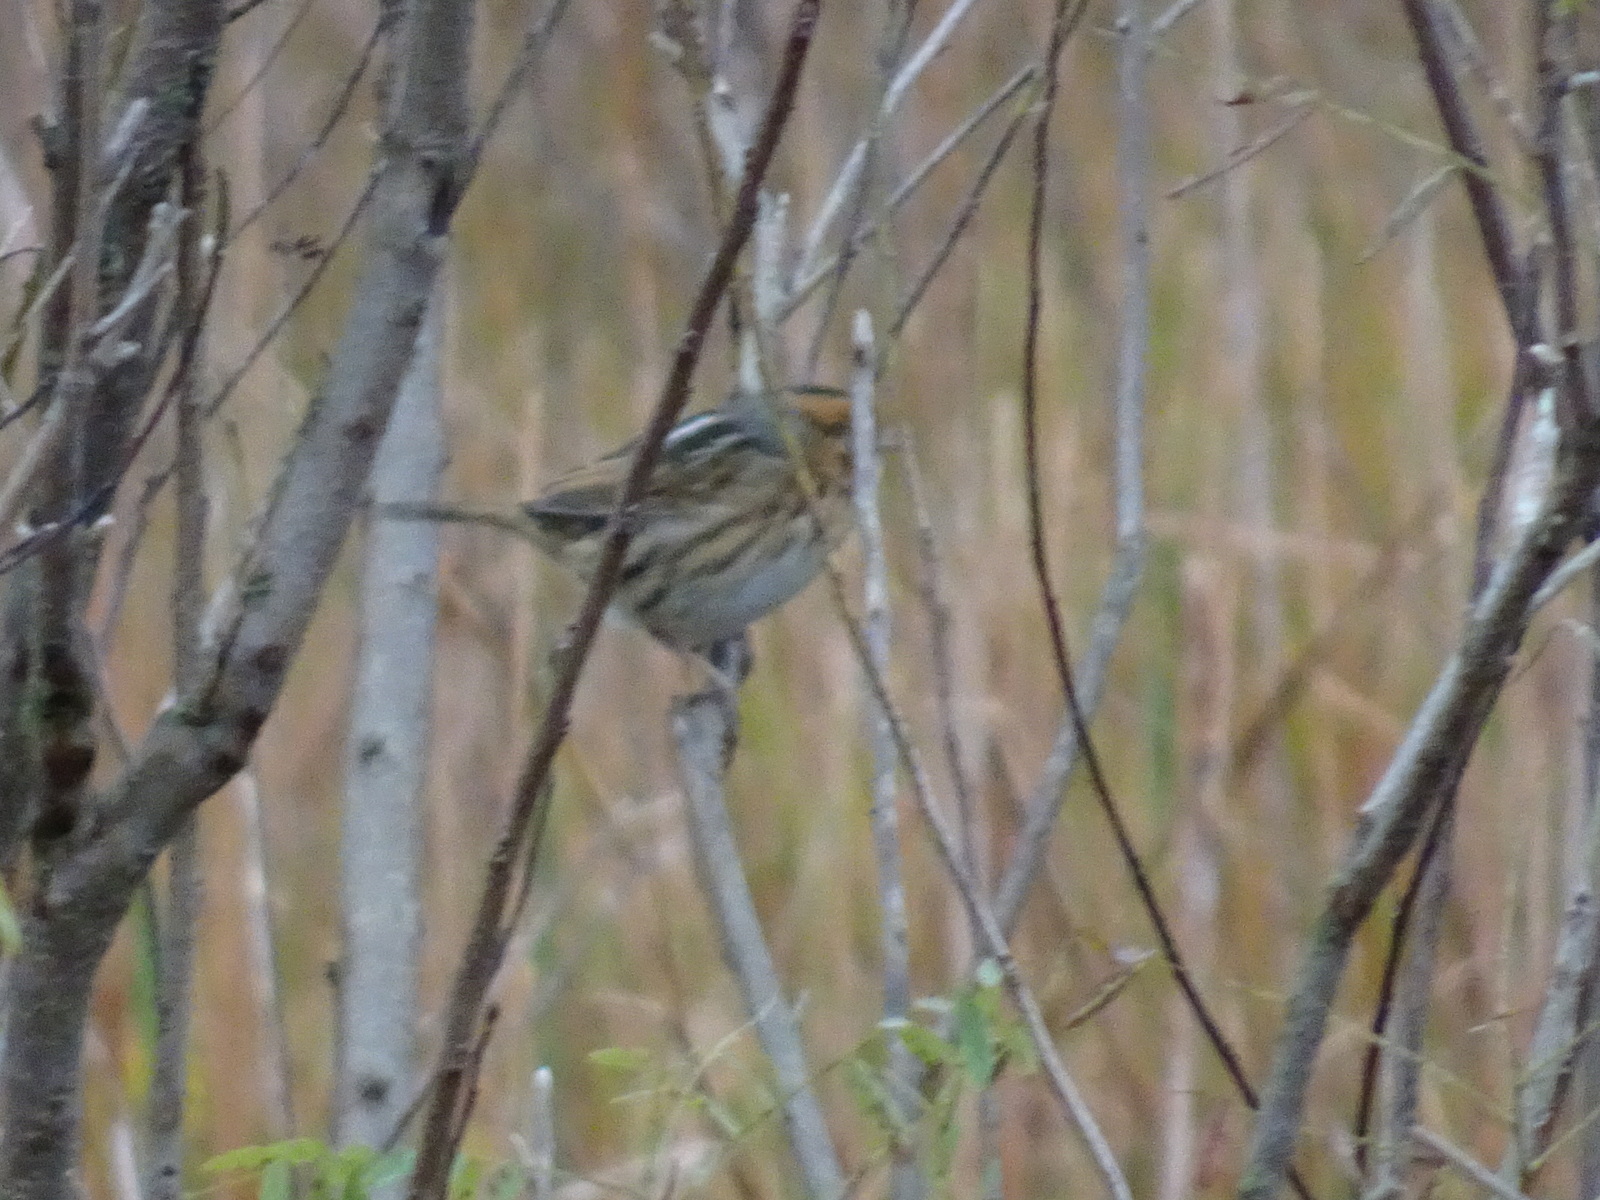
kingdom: Animalia
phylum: Chordata
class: Aves
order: Passeriformes
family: Passerellidae
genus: Ammospiza
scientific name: Ammospiza nelsoni
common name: Nelson's sparrow
